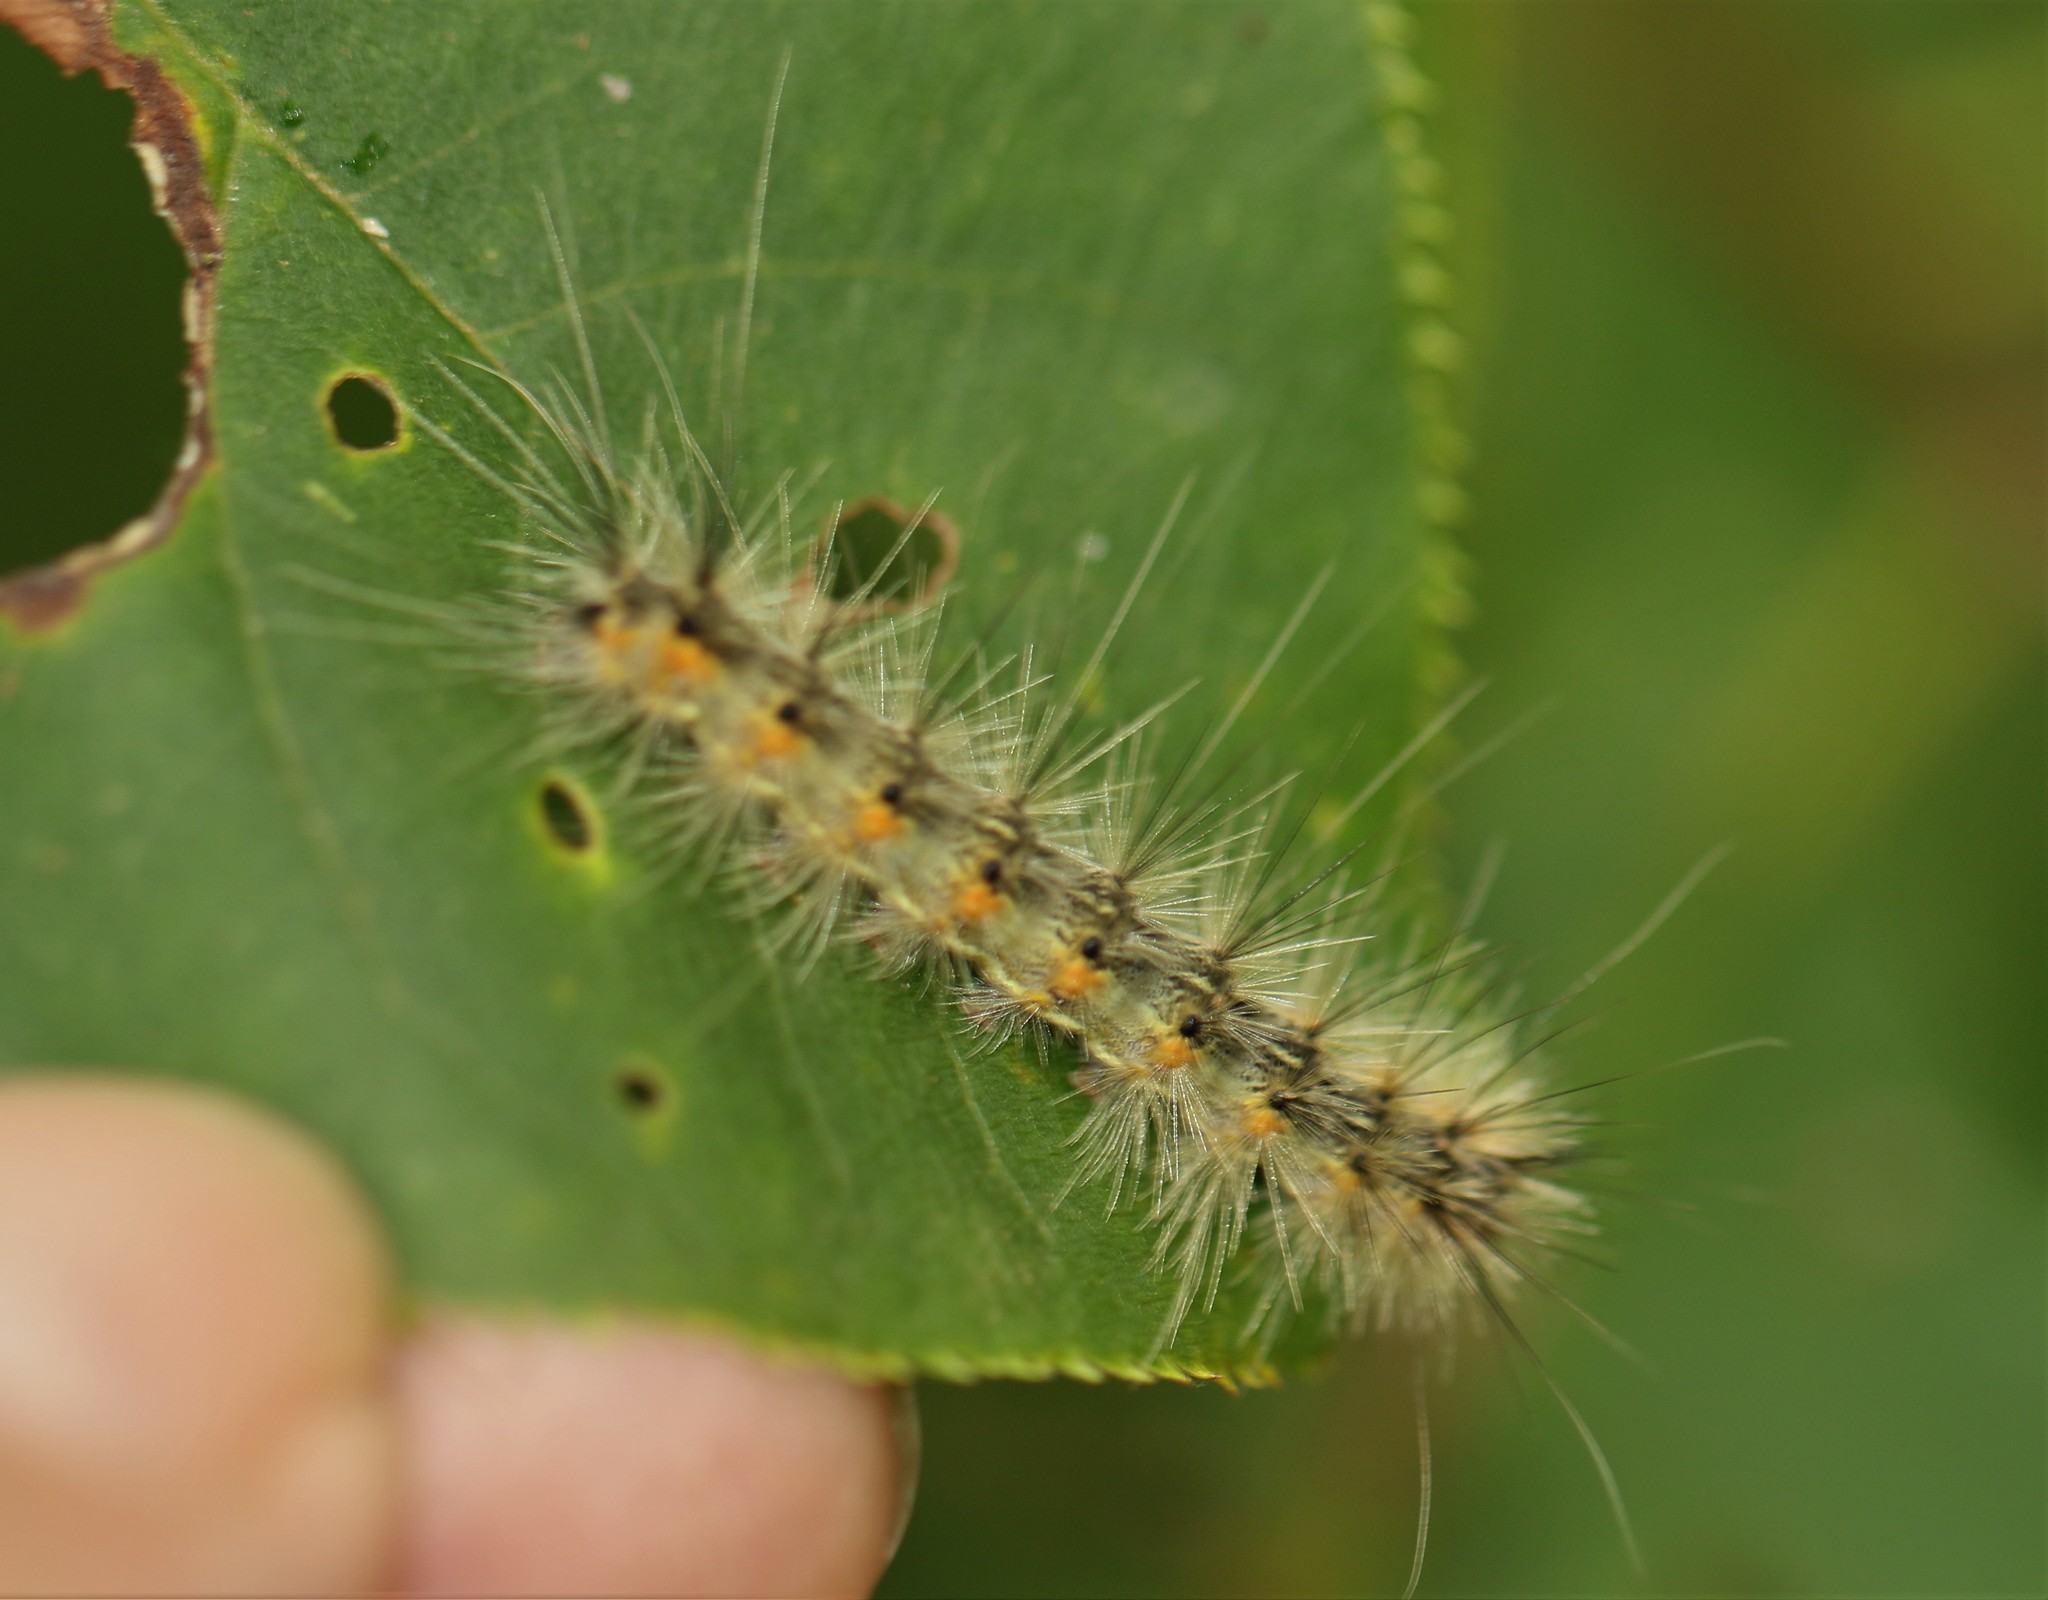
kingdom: Animalia
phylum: Arthropoda
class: Insecta
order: Lepidoptera
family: Erebidae
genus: Hyphantria
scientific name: Hyphantria cunea
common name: American white moth
